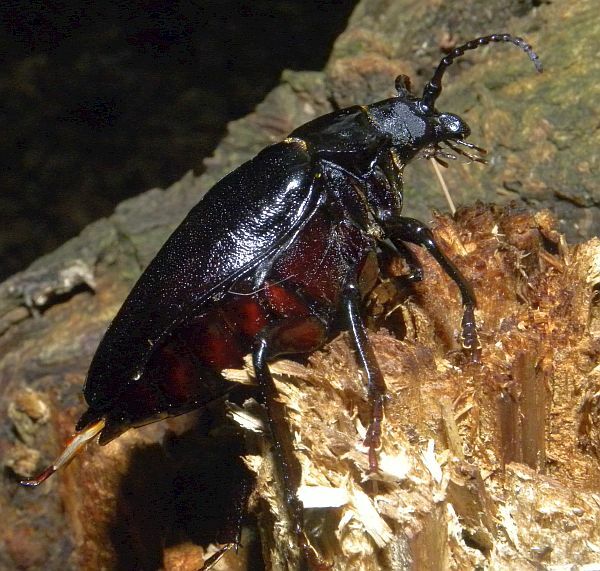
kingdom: Animalia
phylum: Arthropoda
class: Insecta
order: Coleoptera
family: Cerambycidae
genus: Prionus
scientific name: Prionus laticollis
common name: Broad necked prionus
